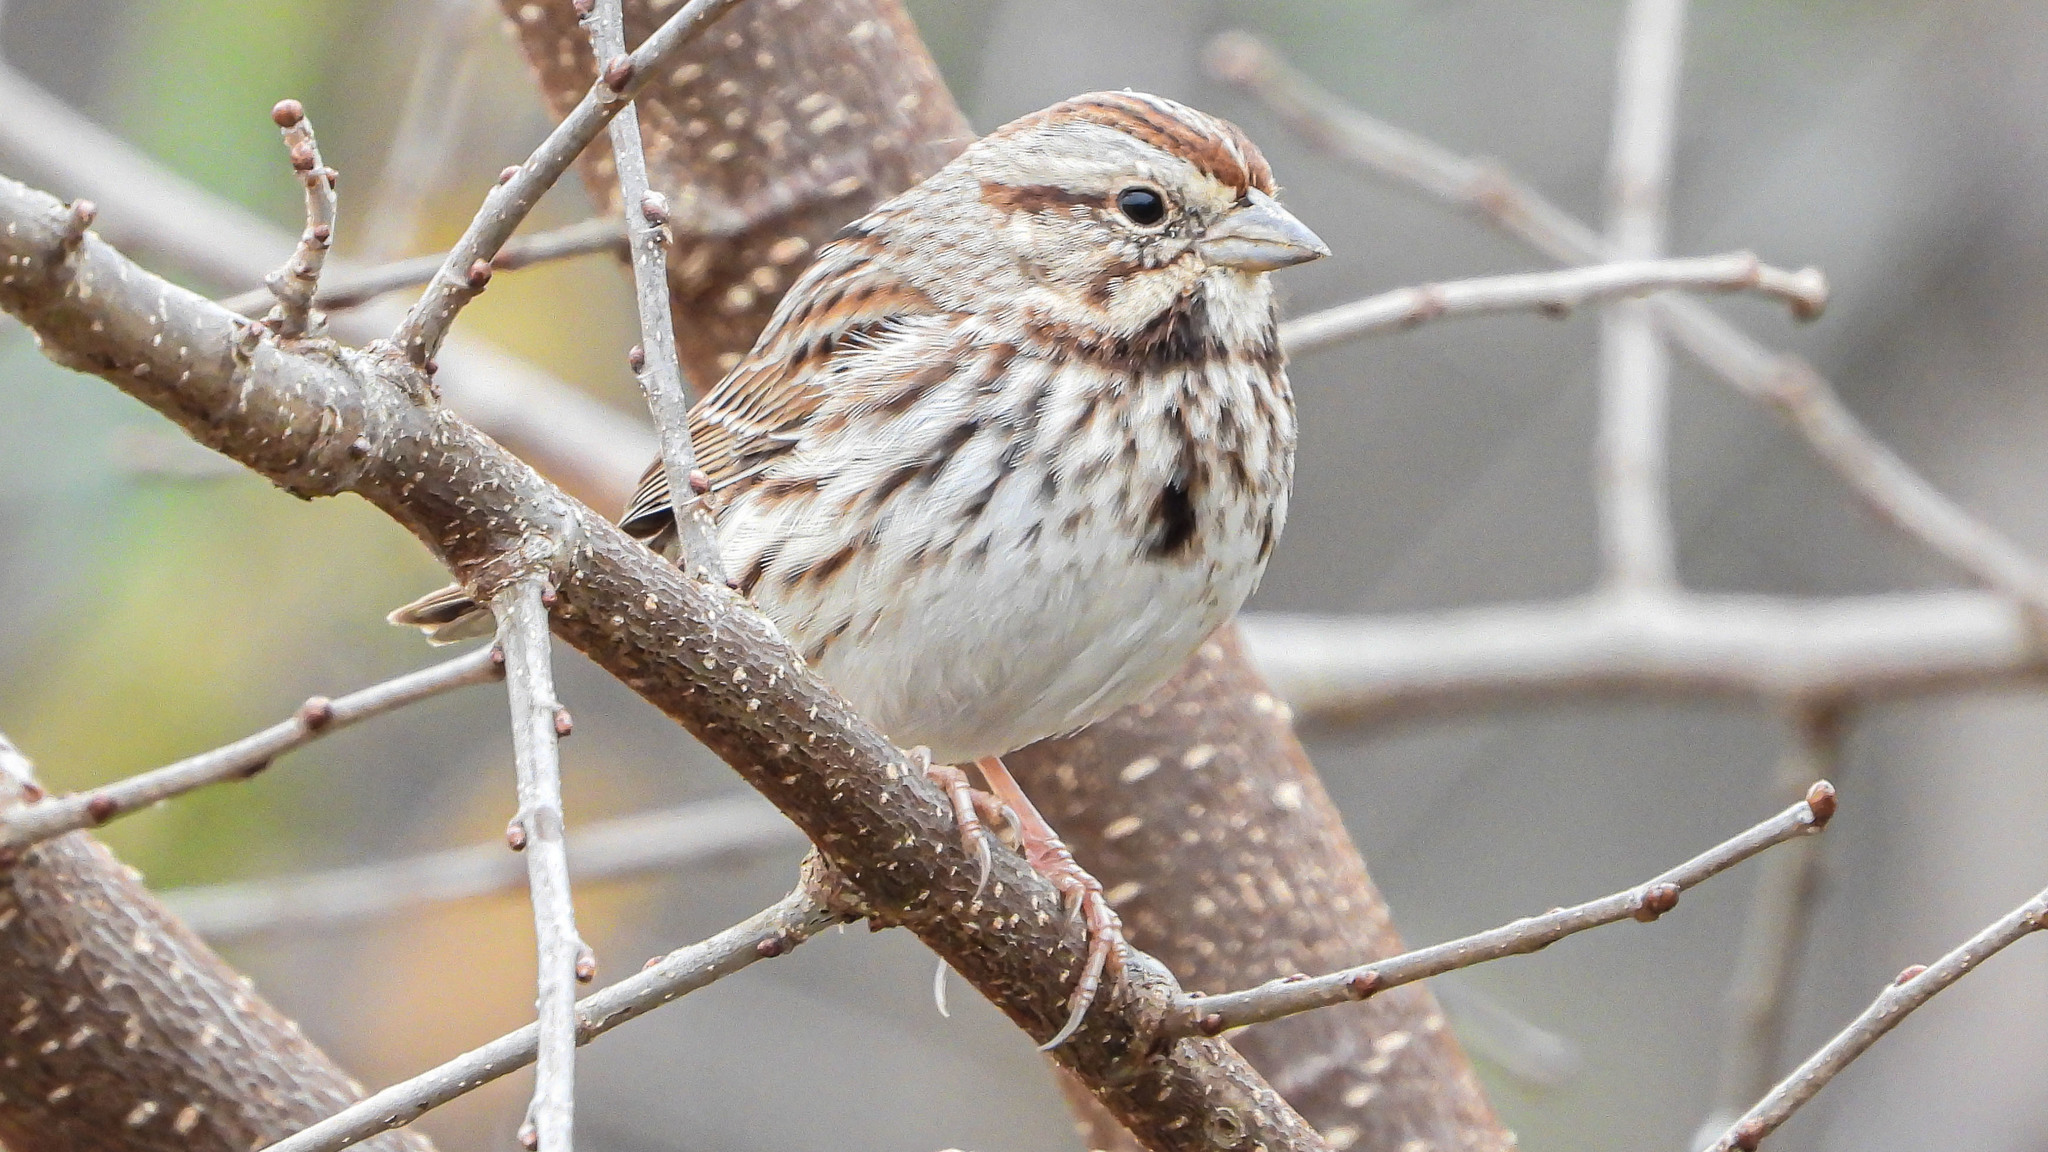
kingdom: Animalia
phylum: Chordata
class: Aves
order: Passeriformes
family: Passerellidae
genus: Melospiza
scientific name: Melospiza melodia
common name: Song sparrow
